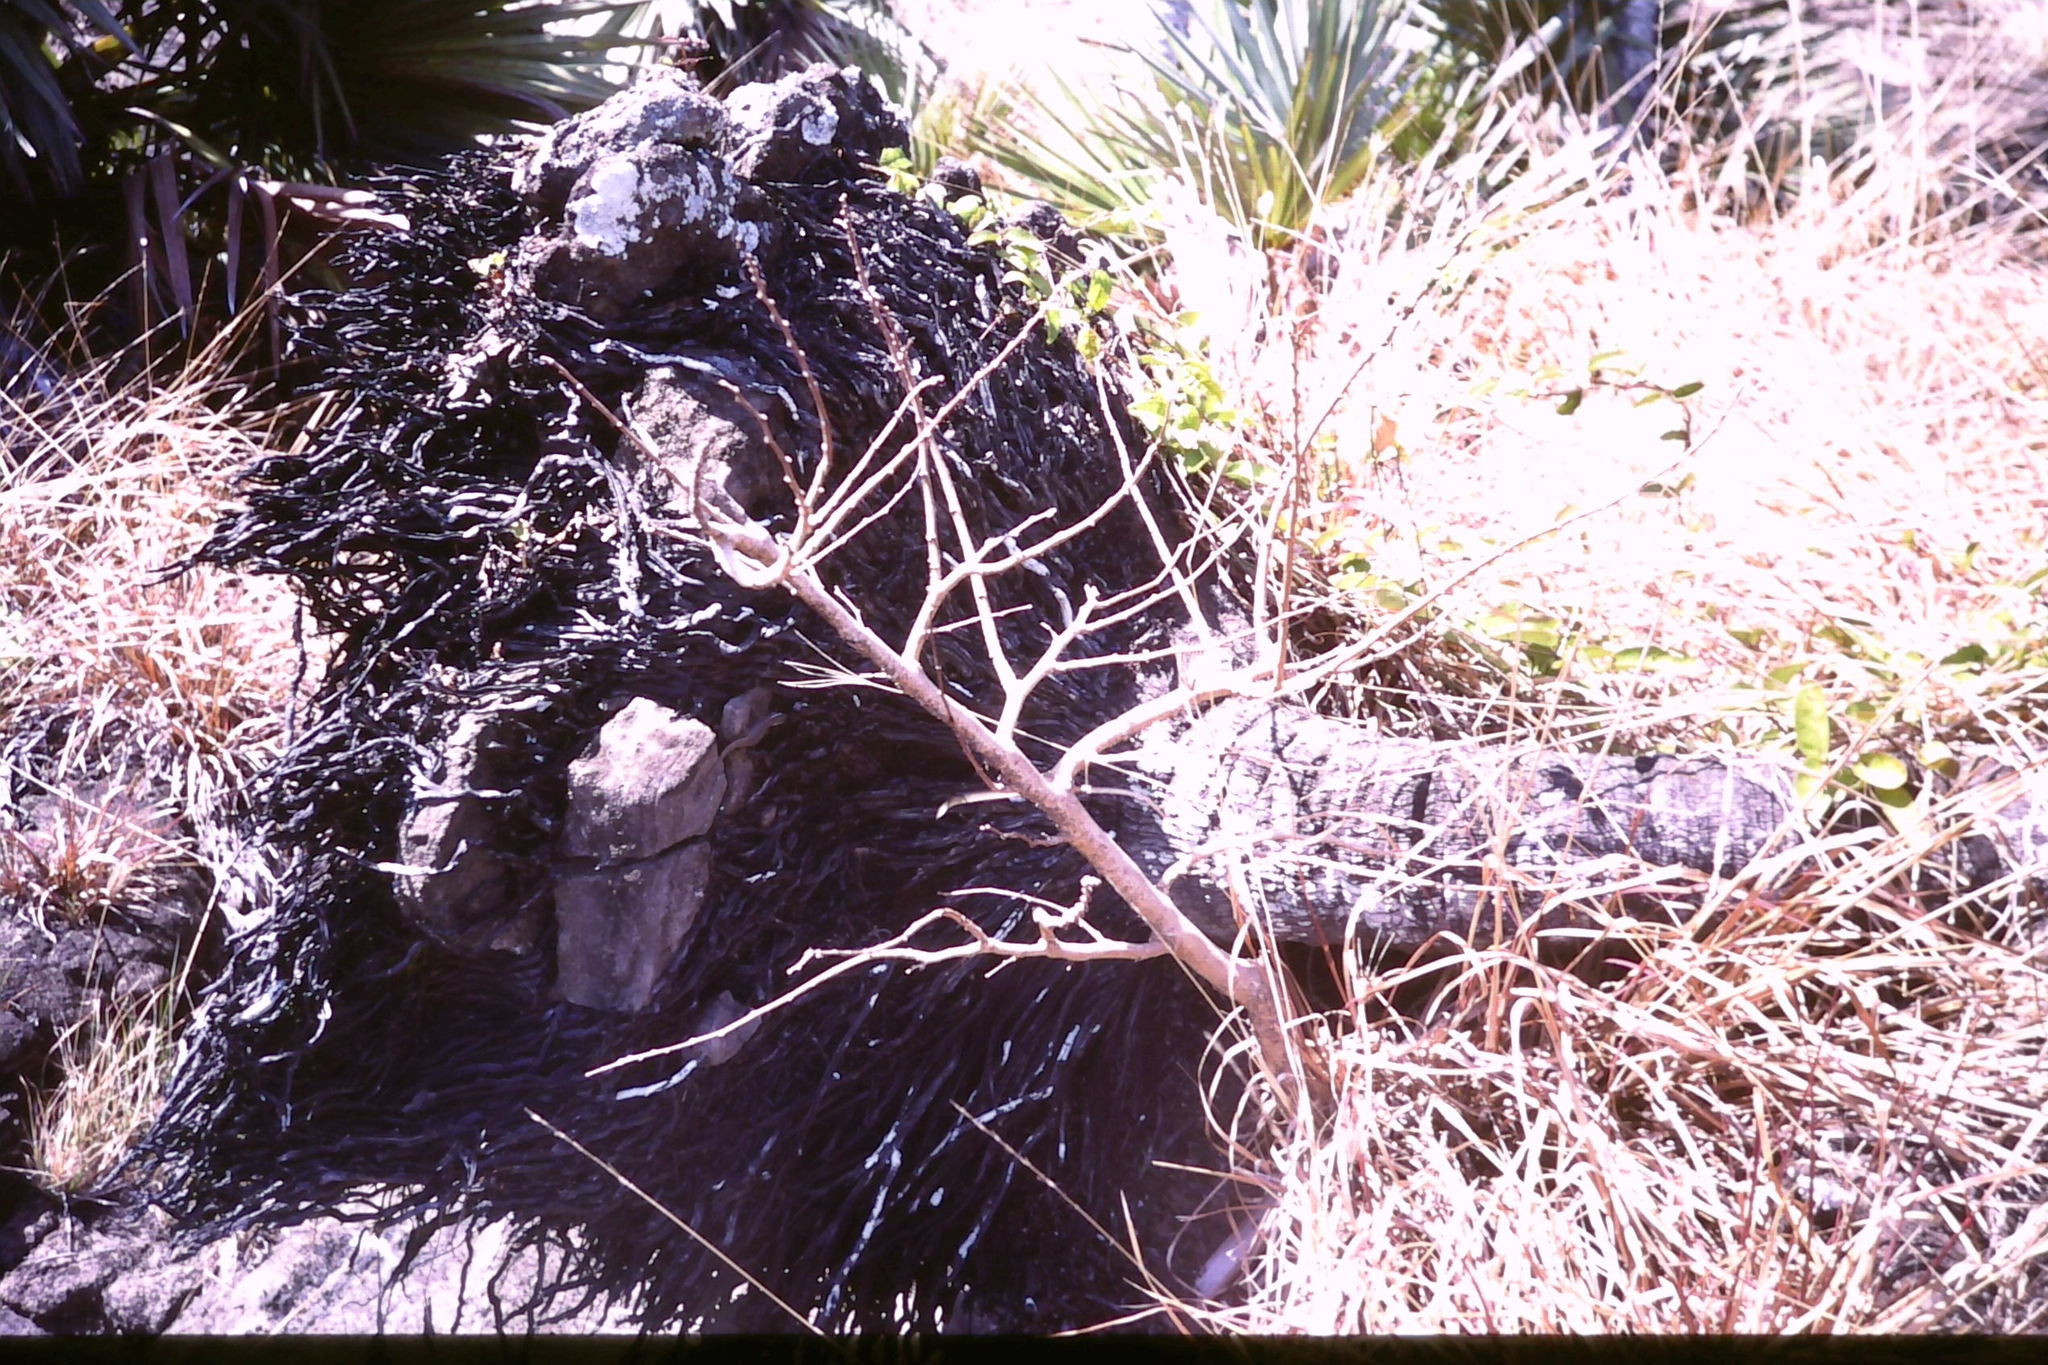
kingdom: Plantae
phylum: Tracheophyta
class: Magnoliopsida
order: Fabales
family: Fabaceae
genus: Gagnebina
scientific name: Gagnebina pterocarpa
